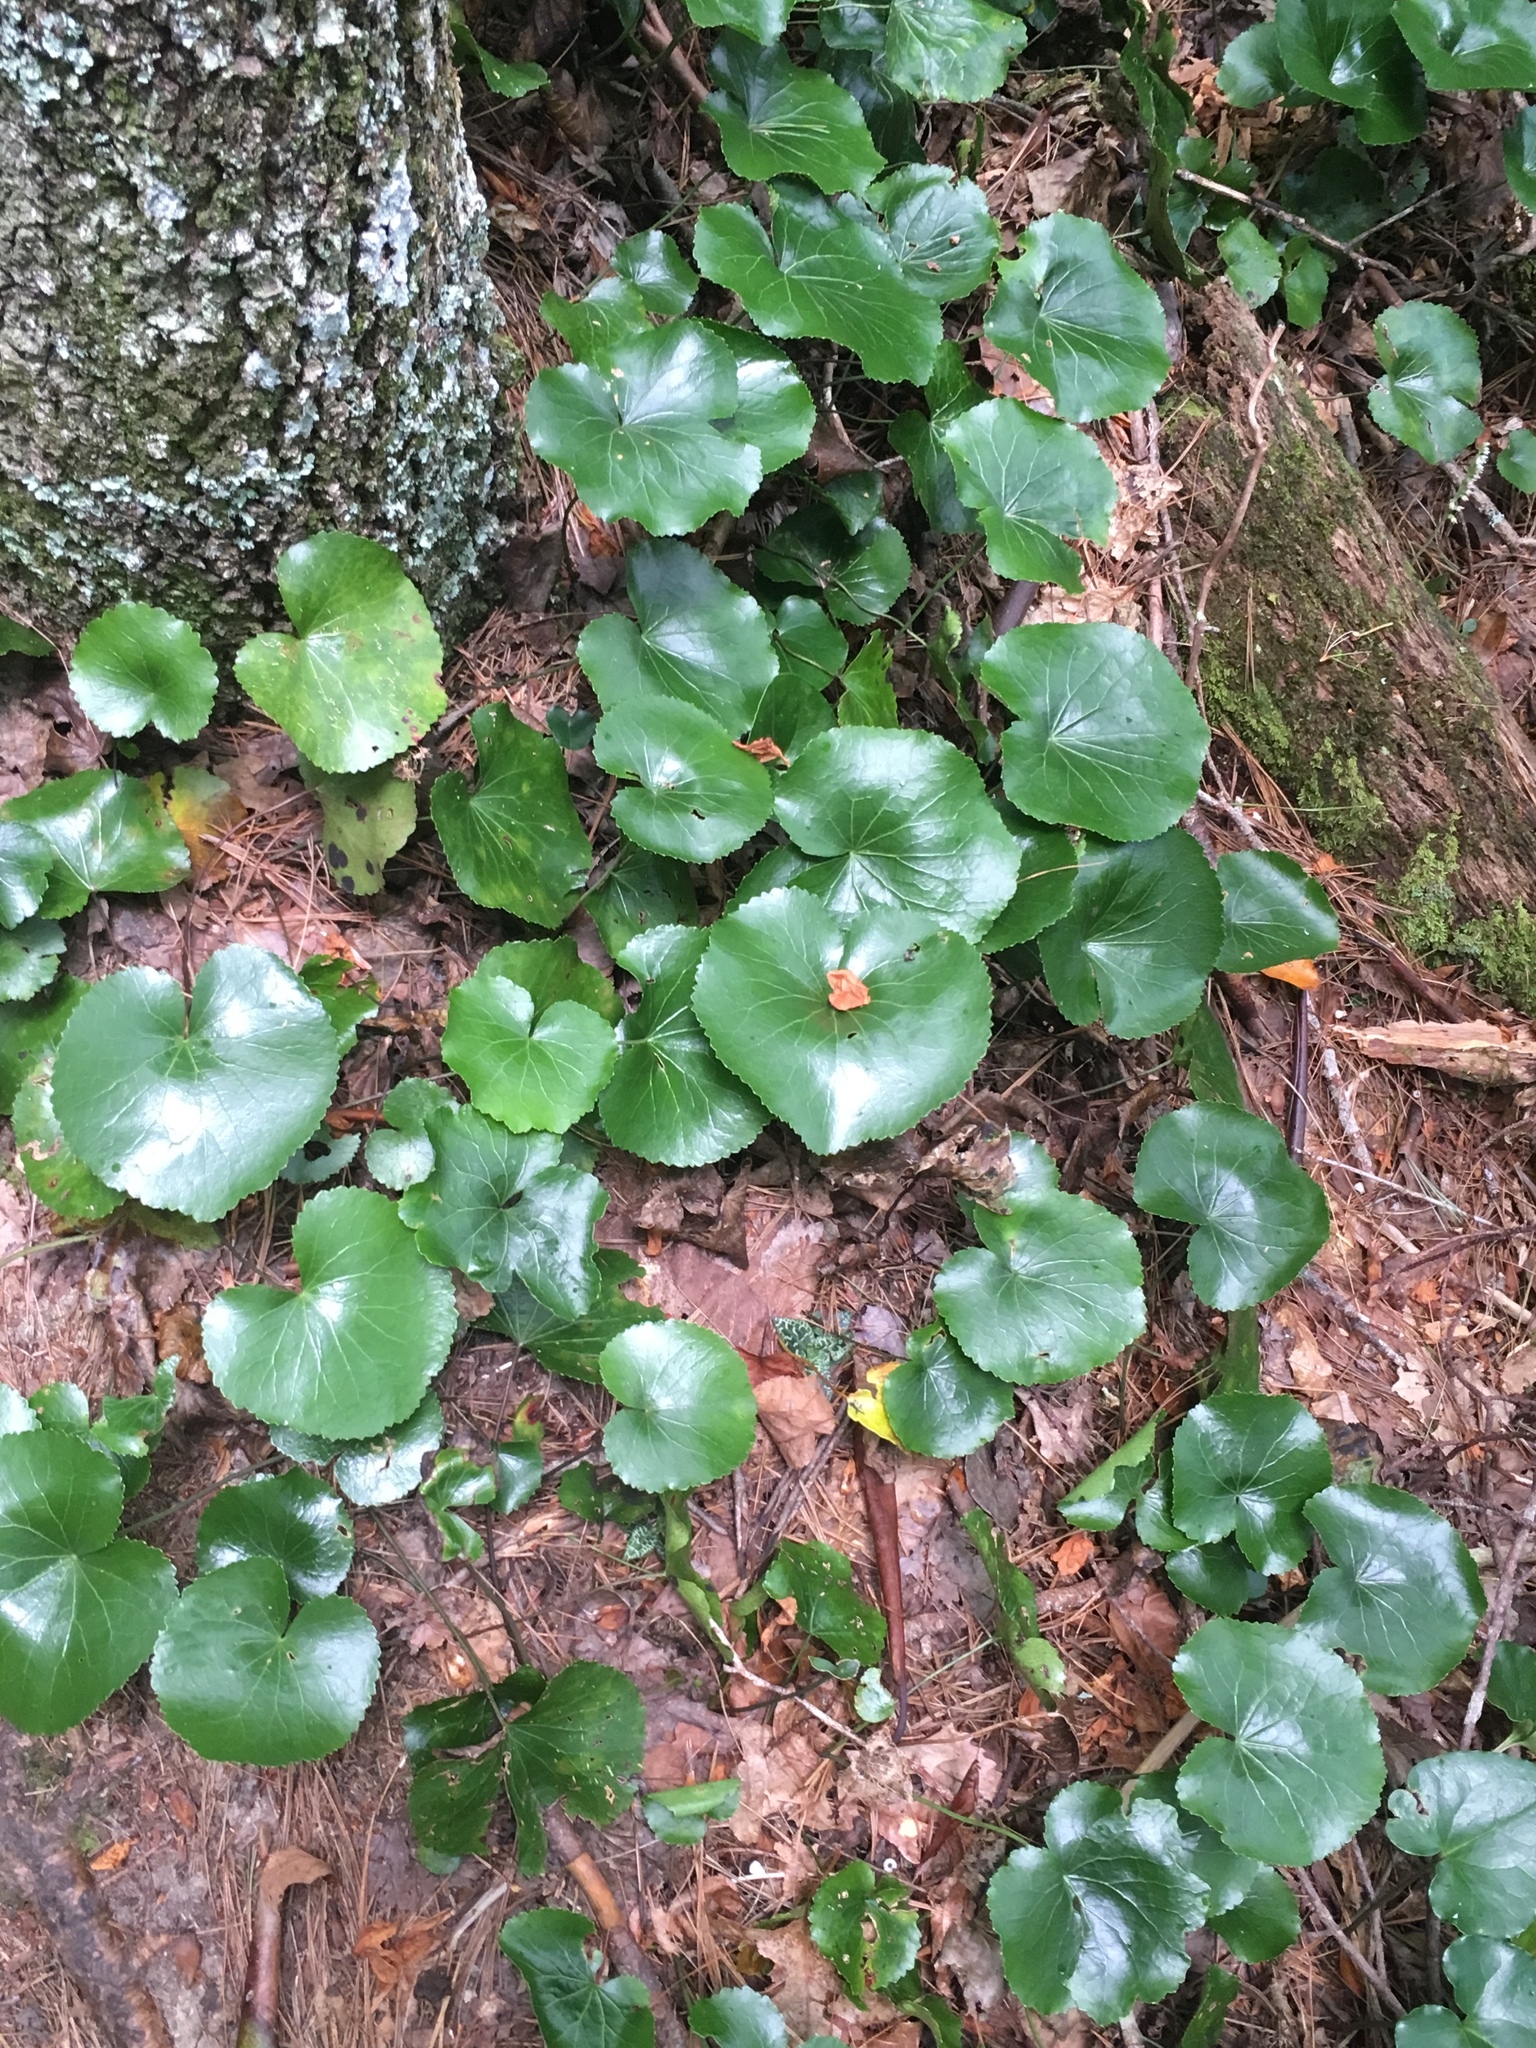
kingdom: Plantae
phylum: Tracheophyta
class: Magnoliopsida
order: Ericales
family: Diapensiaceae
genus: Galax
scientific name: Galax urceolata
